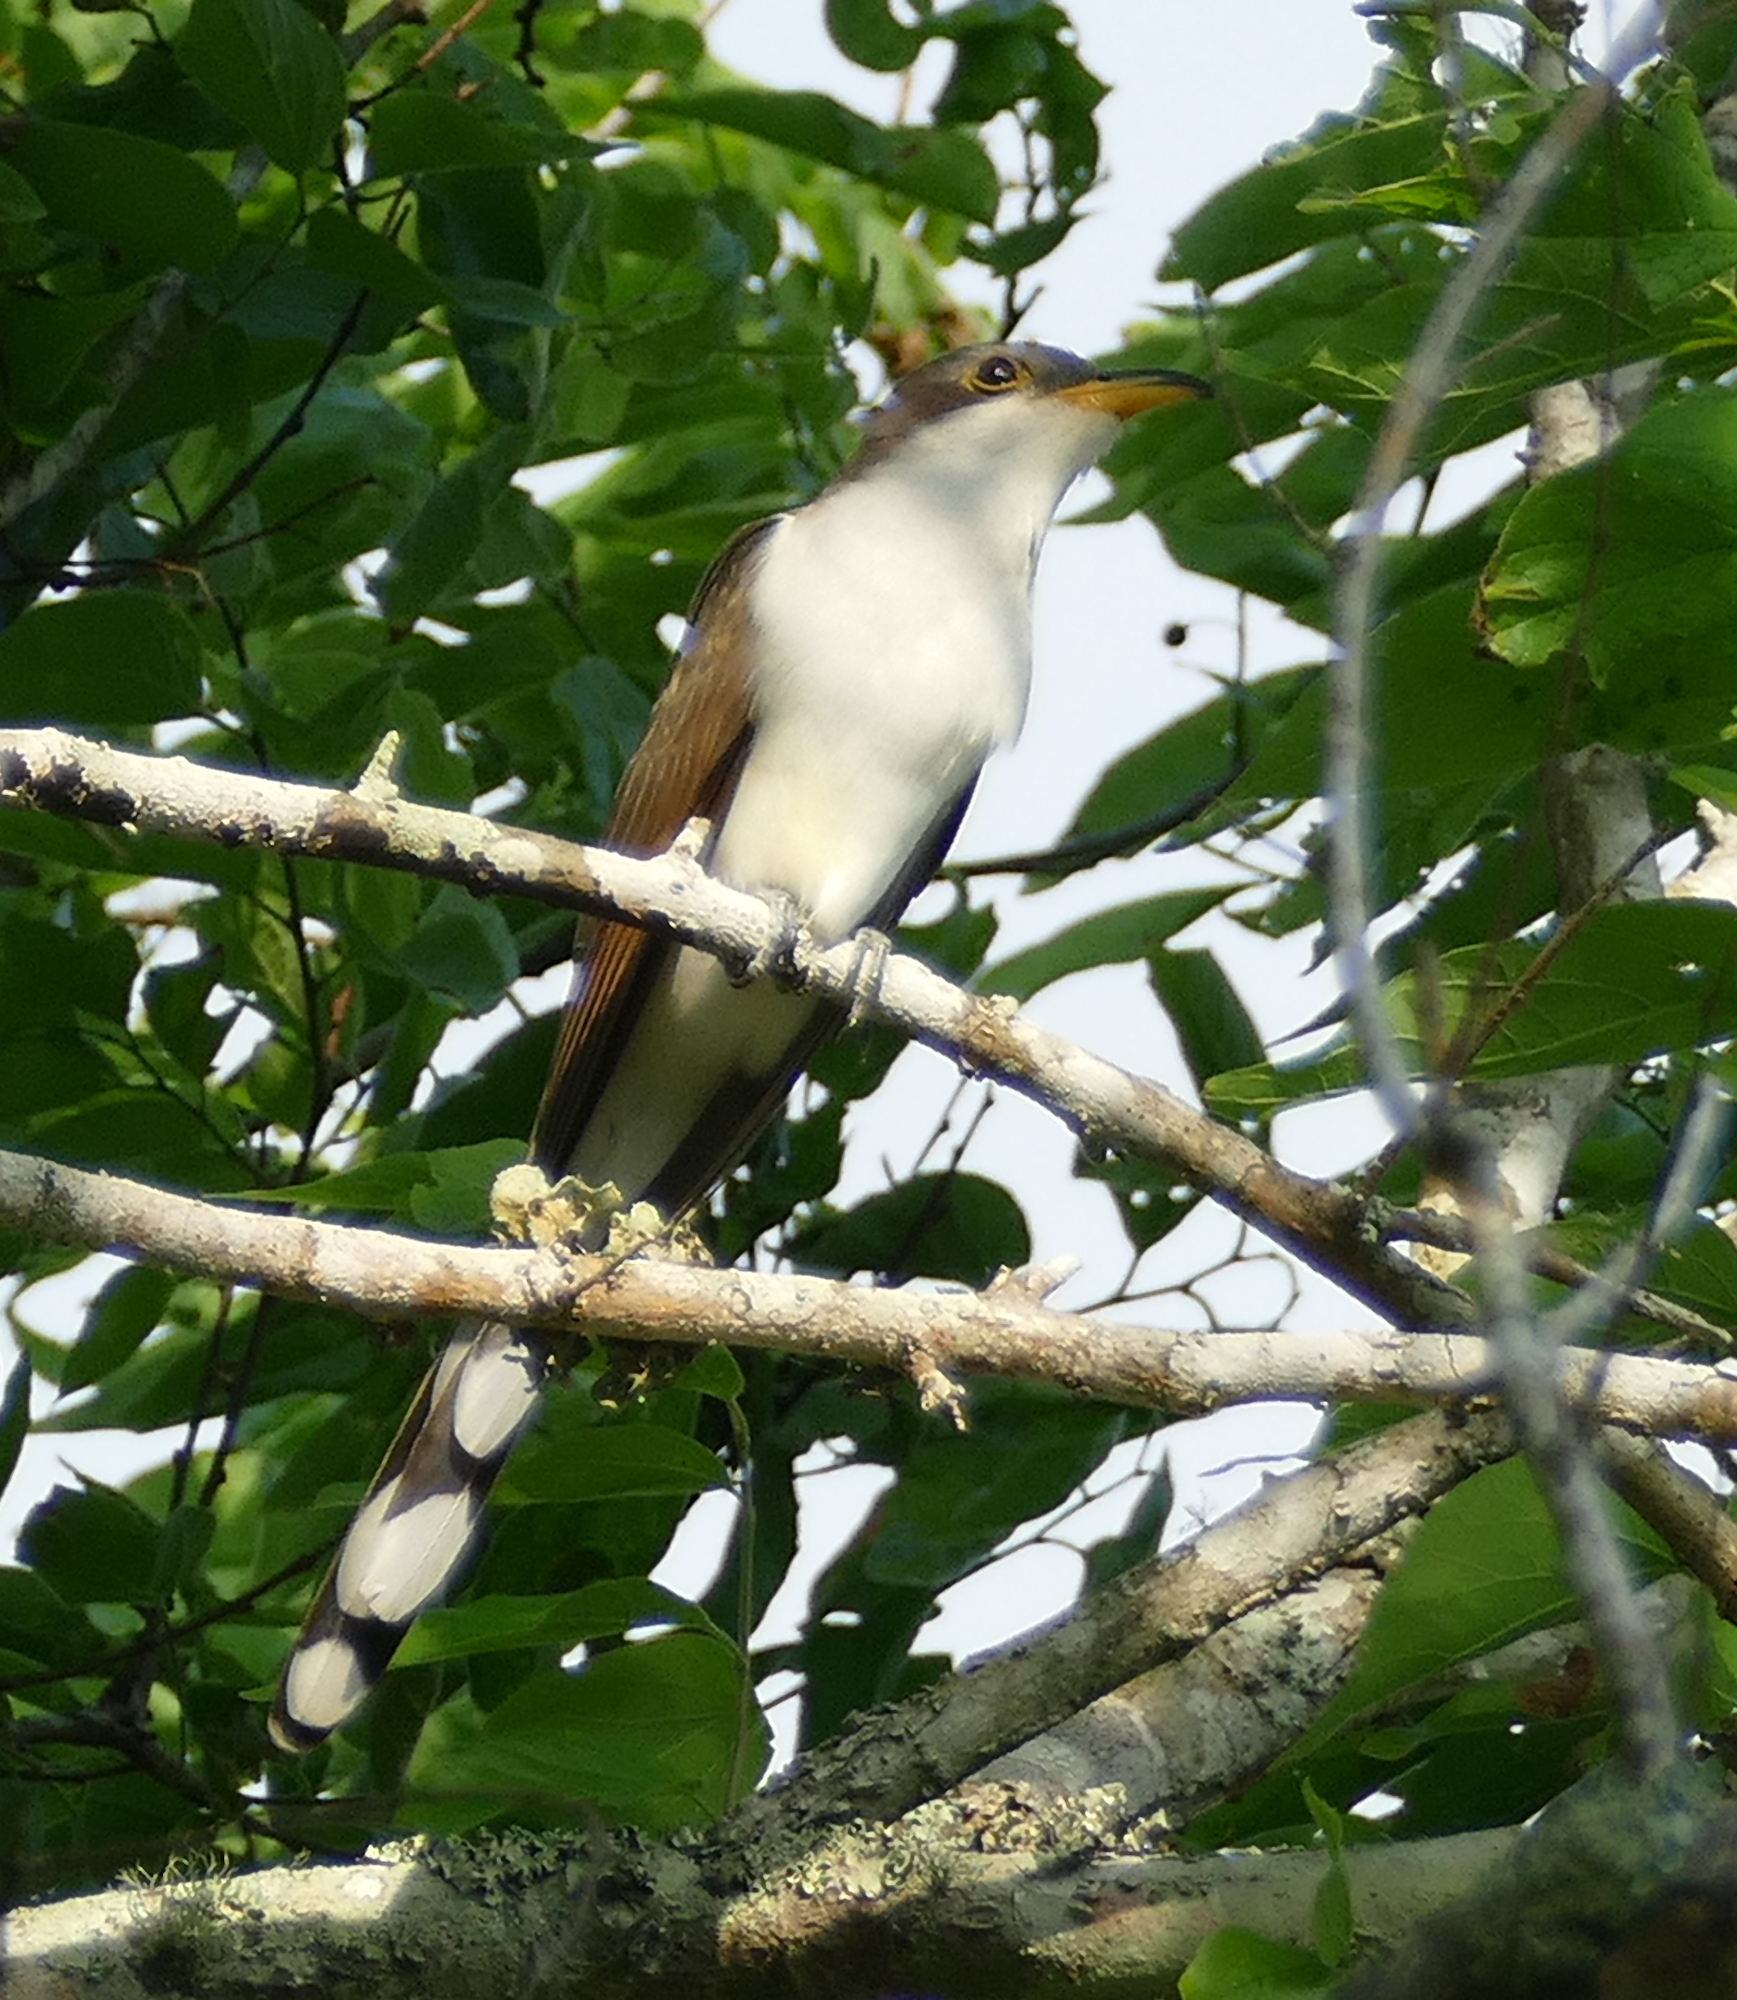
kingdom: Animalia
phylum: Chordata
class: Aves
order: Cuculiformes
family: Cuculidae
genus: Coccyzus
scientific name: Coccyzus americanus
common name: Yellow-billed cuckoo
